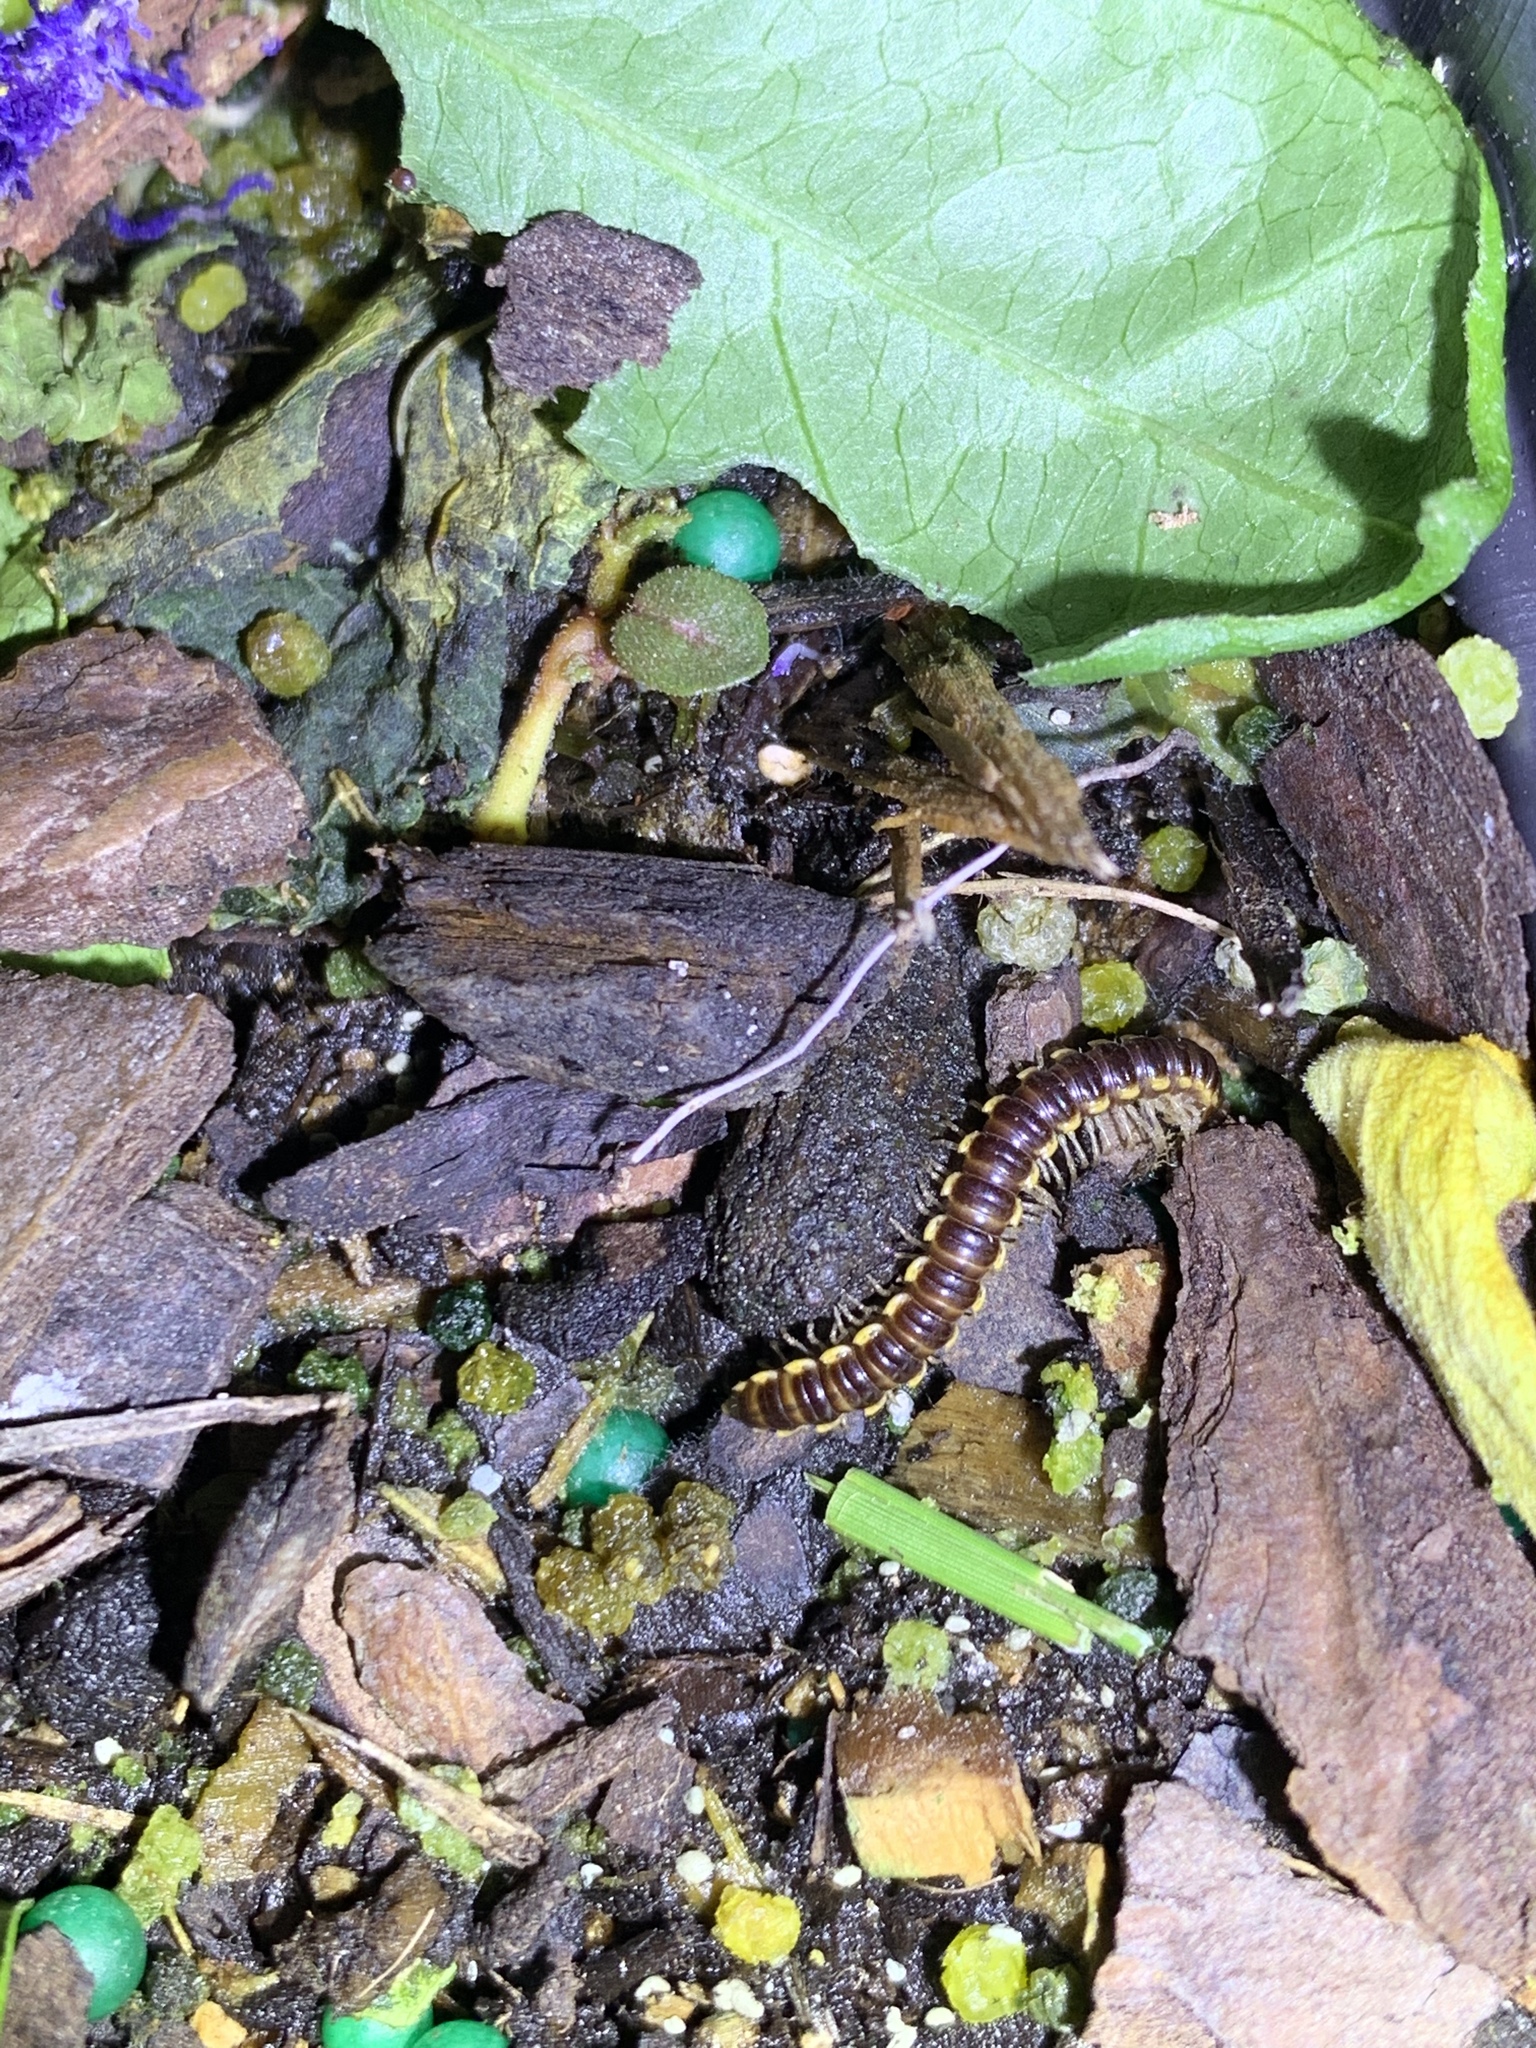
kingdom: Animalia
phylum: Arthropoda
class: Diplopoda
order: Polydesmida
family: Paradoxosomatidae
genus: Orthomorpha
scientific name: Orthomorpha coarctata
